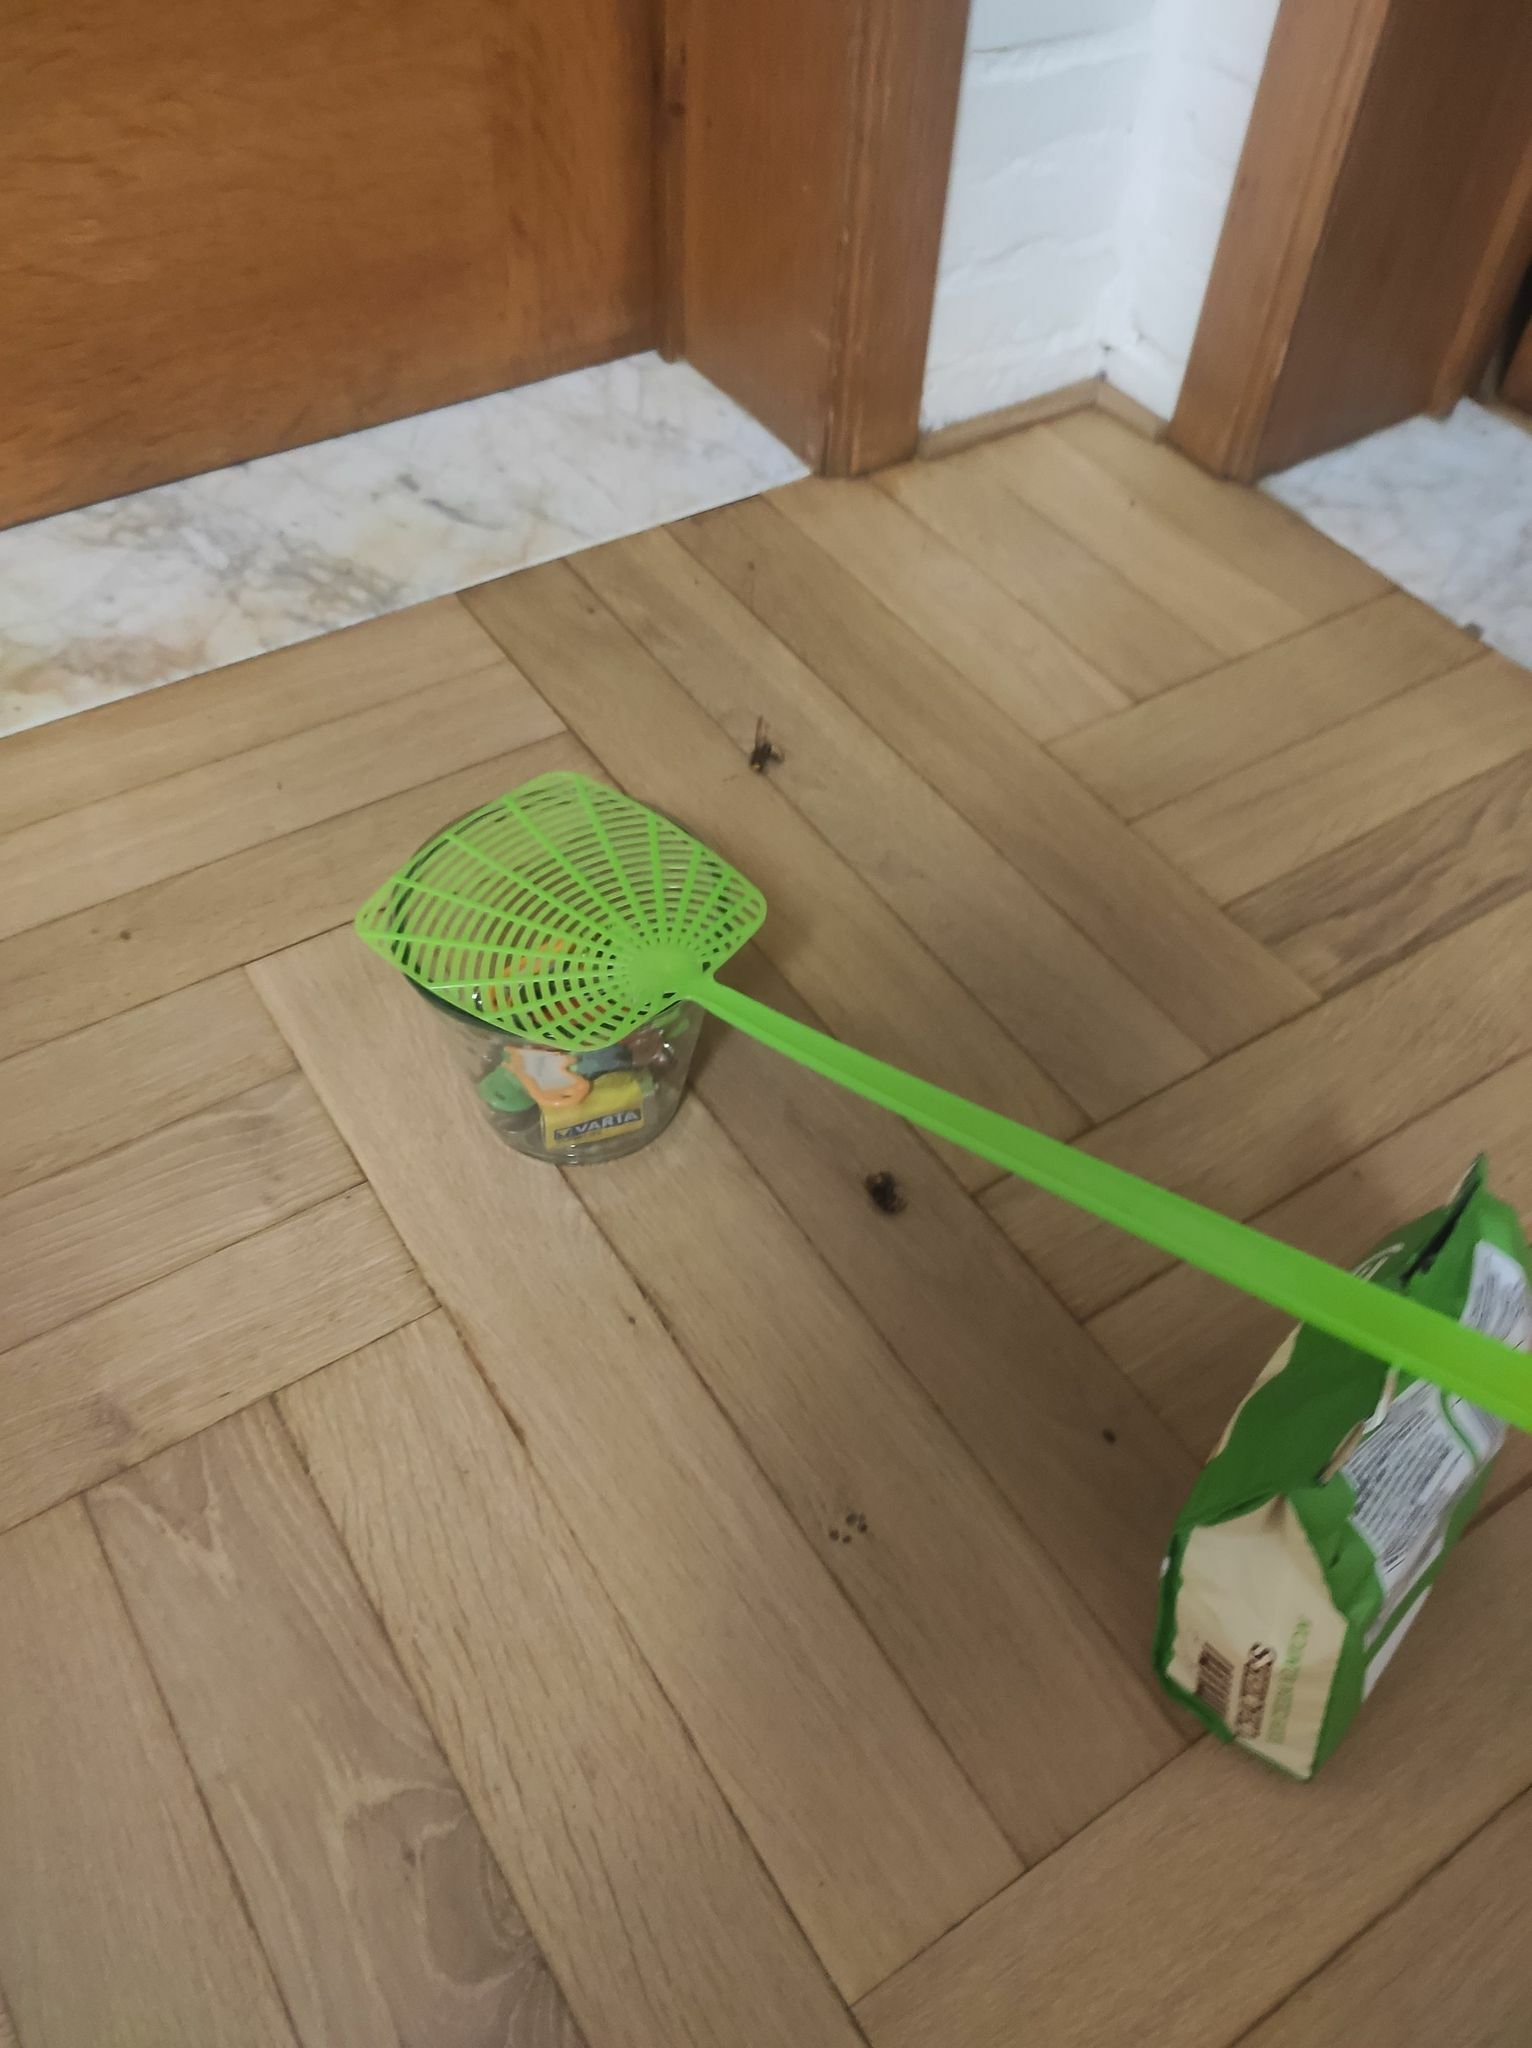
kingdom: Animalia
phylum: Arthropoda
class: Insecta
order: Hymenoptera
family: Vespidae
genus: Vespa
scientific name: Vespa crabro
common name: Hornet
